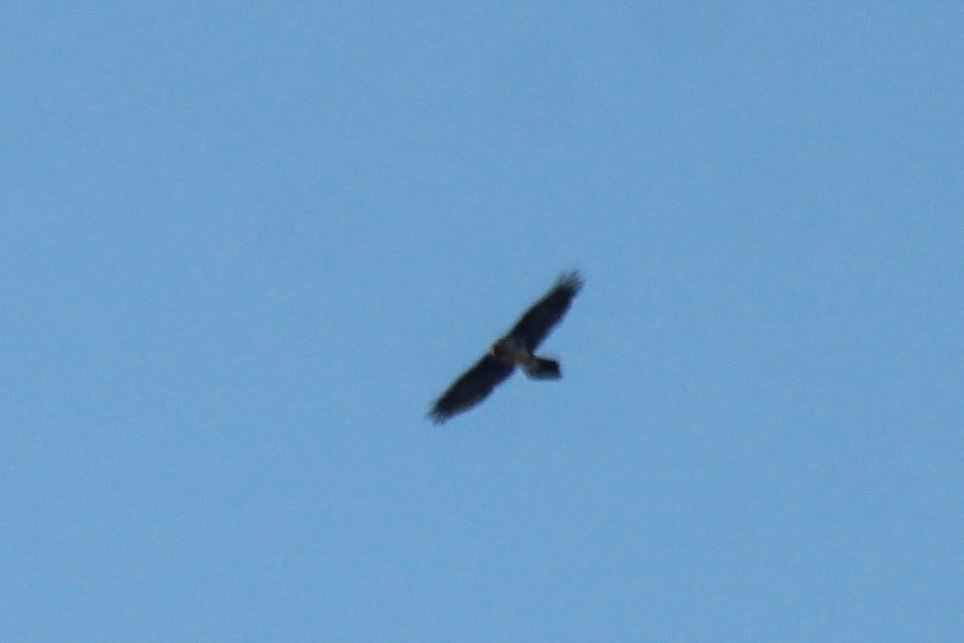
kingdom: Animalia
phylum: Chordata
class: Aves
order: Accipitriformes
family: Accipitridae
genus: Gypaetus
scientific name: Gypaetus barbatus
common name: Bearded vulture
